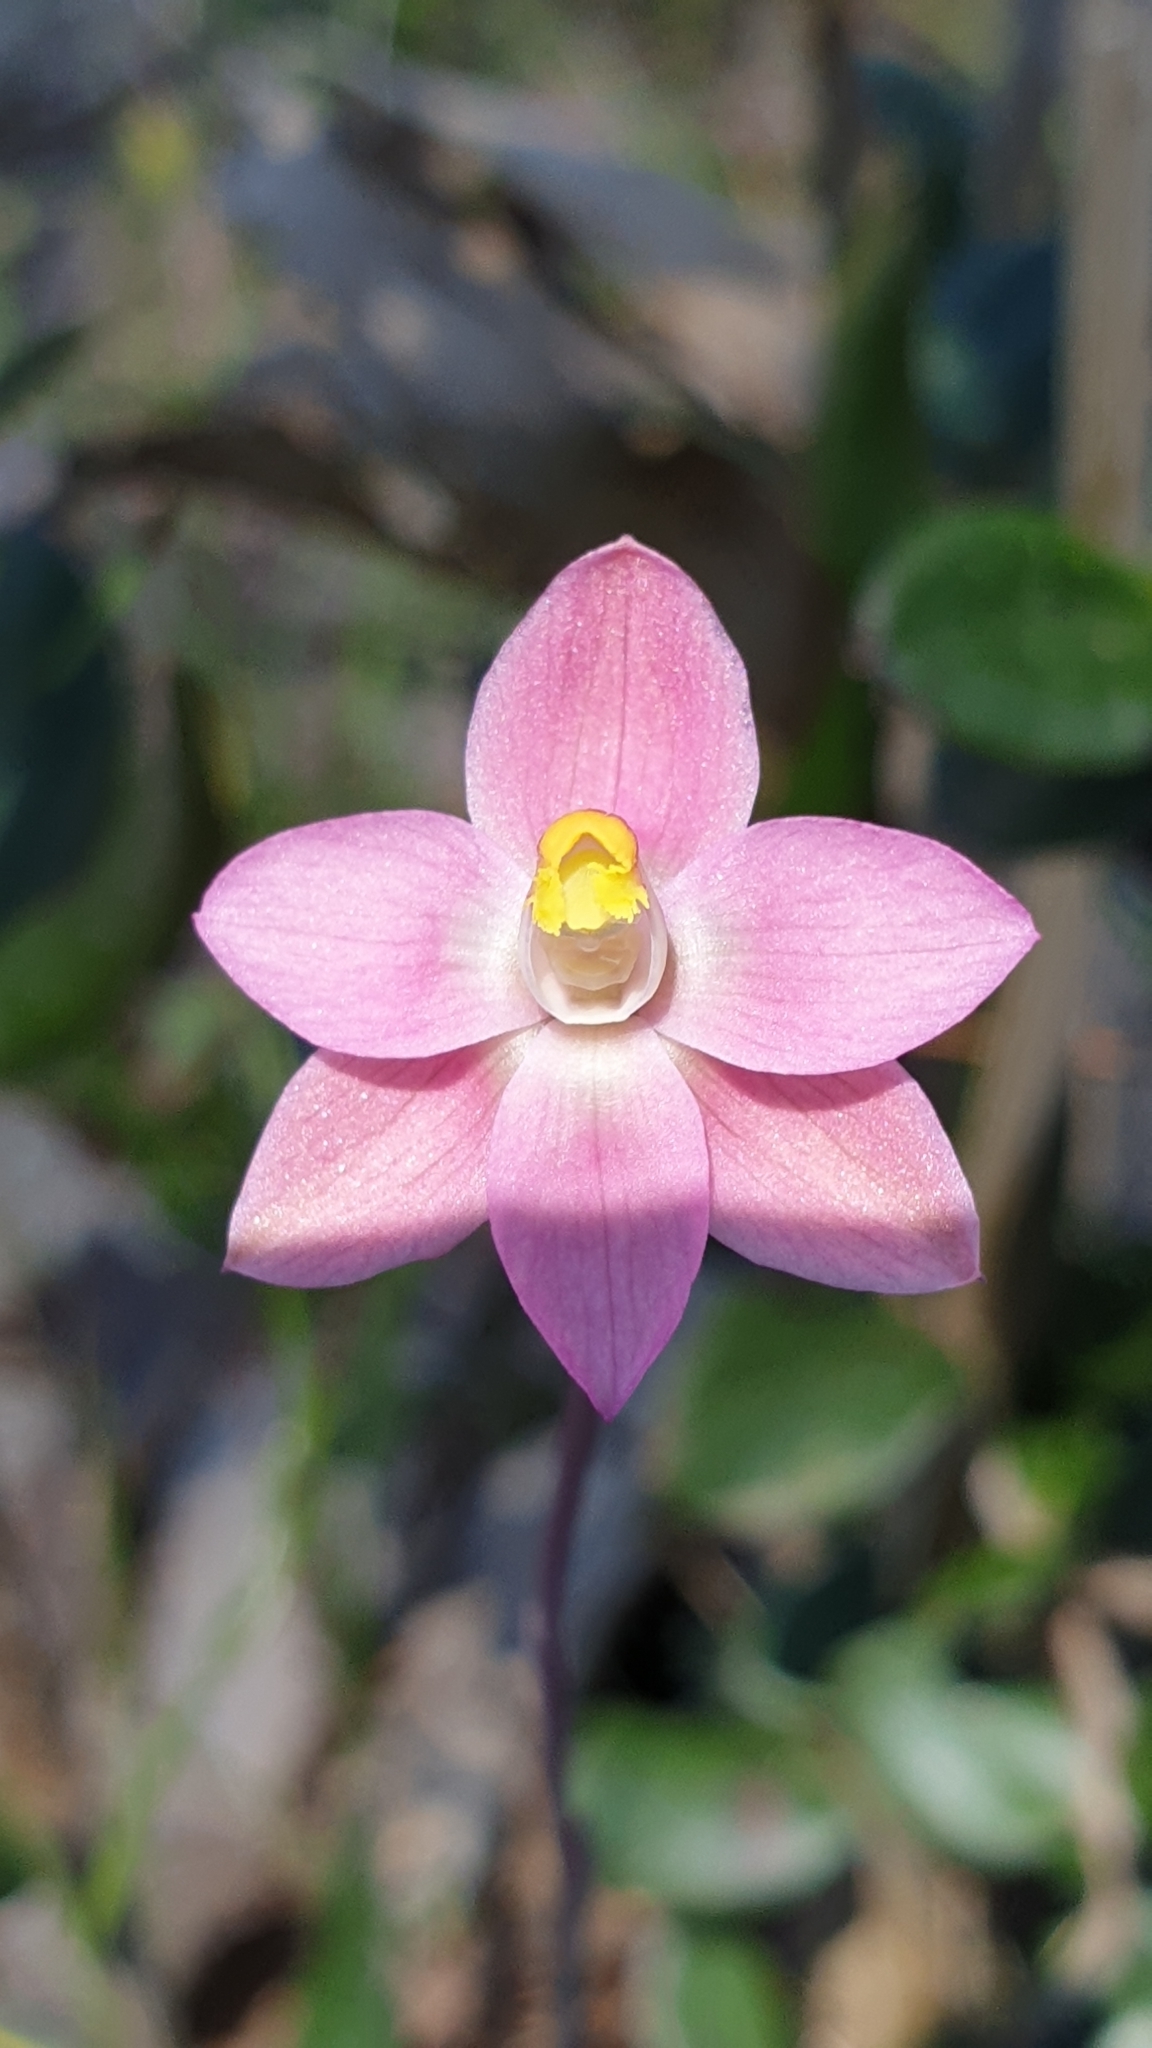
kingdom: Plantae
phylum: Tracheophyta
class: Liliopsida
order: Asparagales
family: Orchidaceae
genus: Thelymitra
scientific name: Thelymitra rubra
